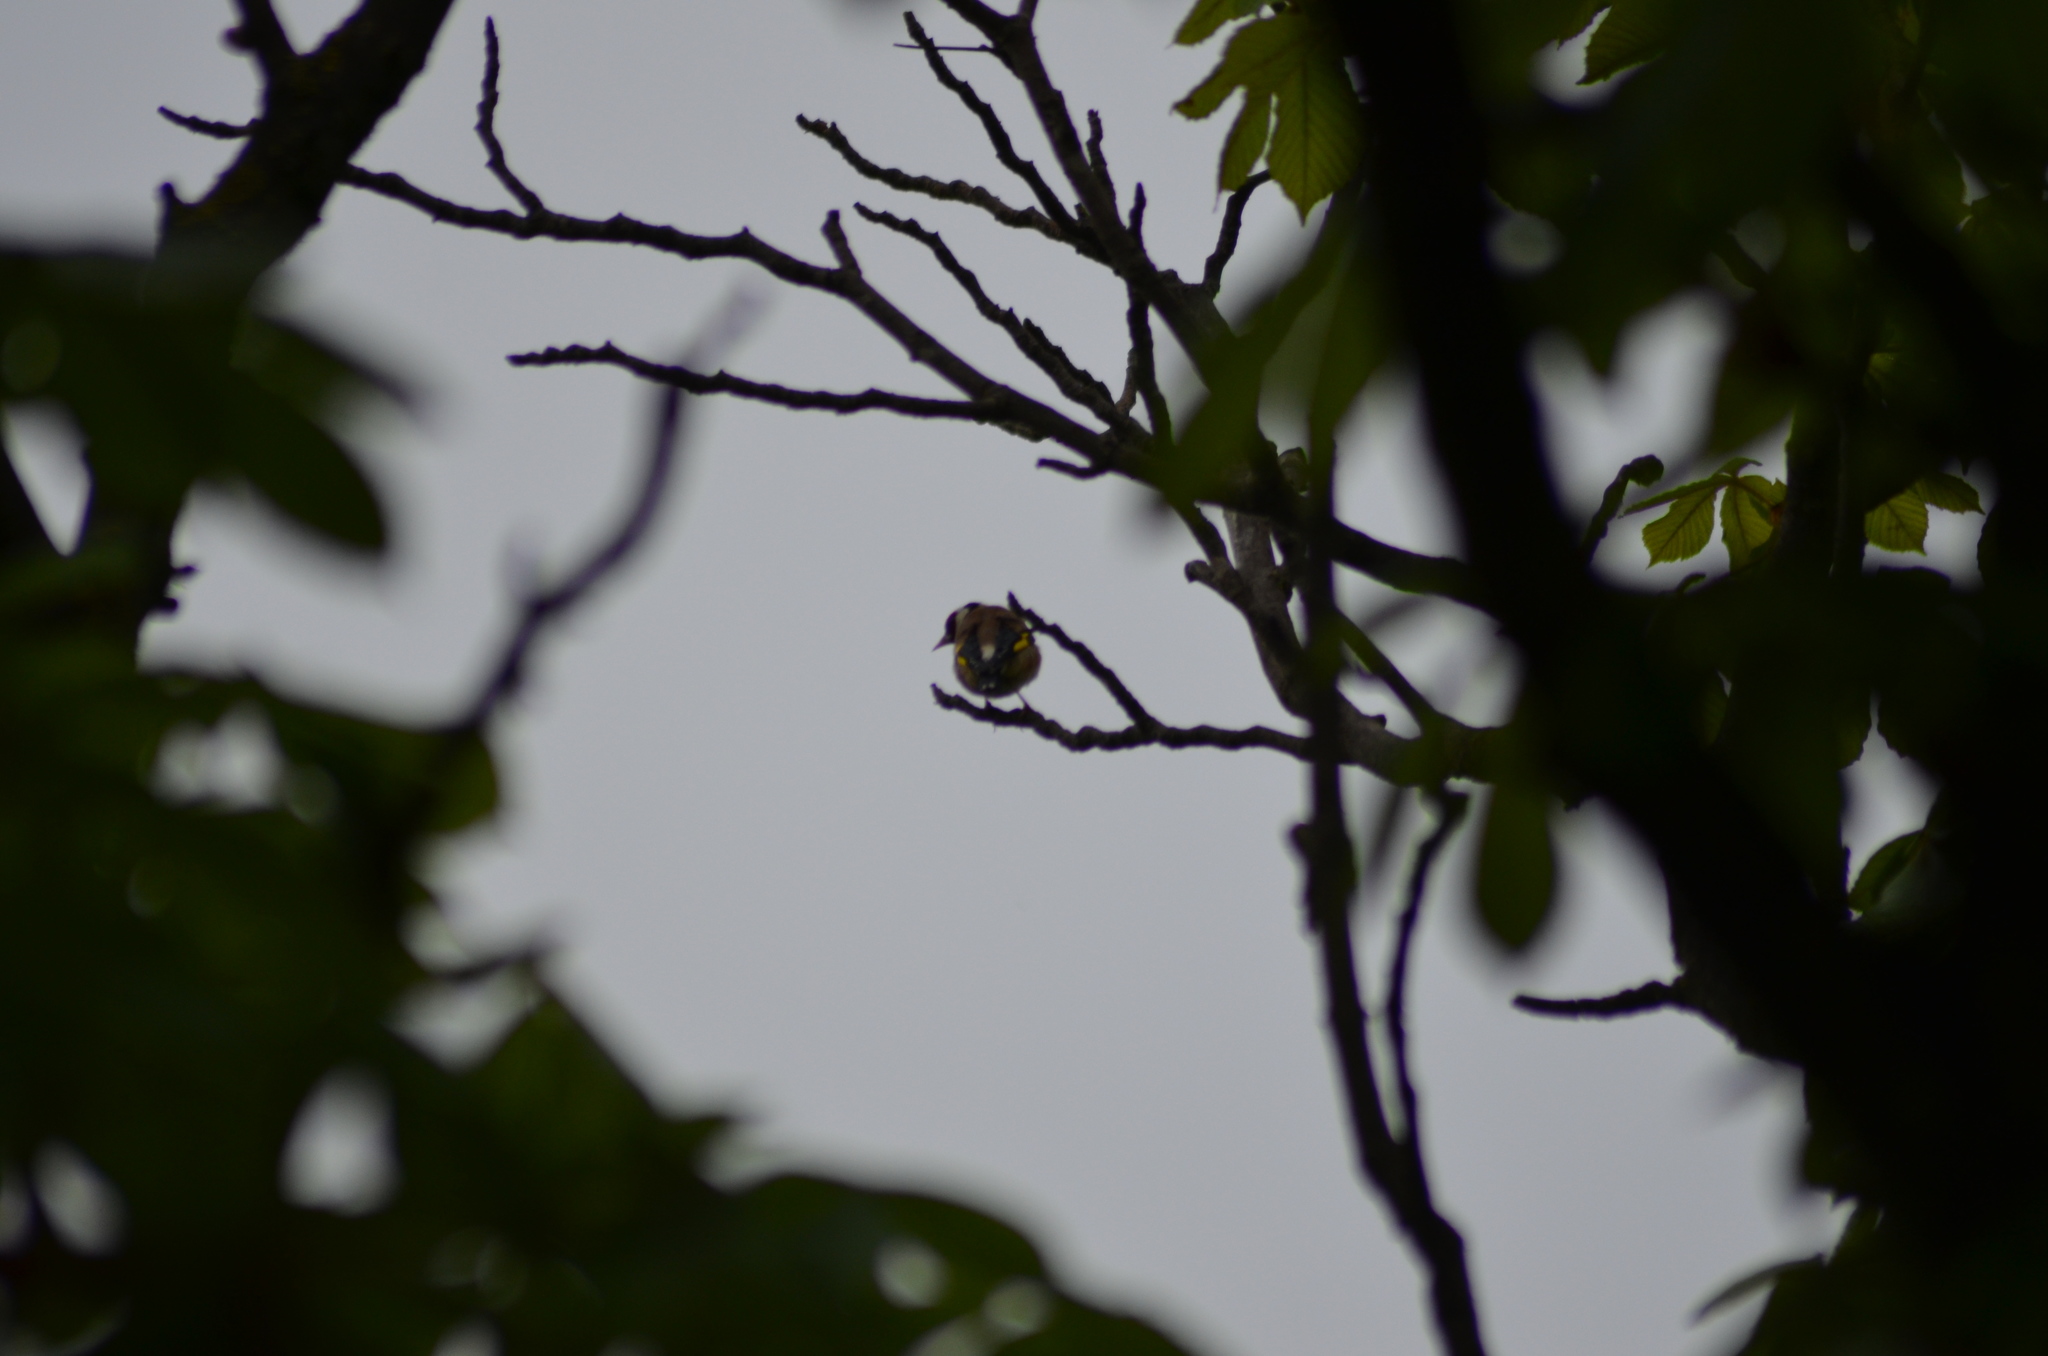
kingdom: Animalia
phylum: Chordata
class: Aves
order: Passeriformes
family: Fringillidae
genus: Carduelis
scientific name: Carduelis carduelis
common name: European goldfinch
